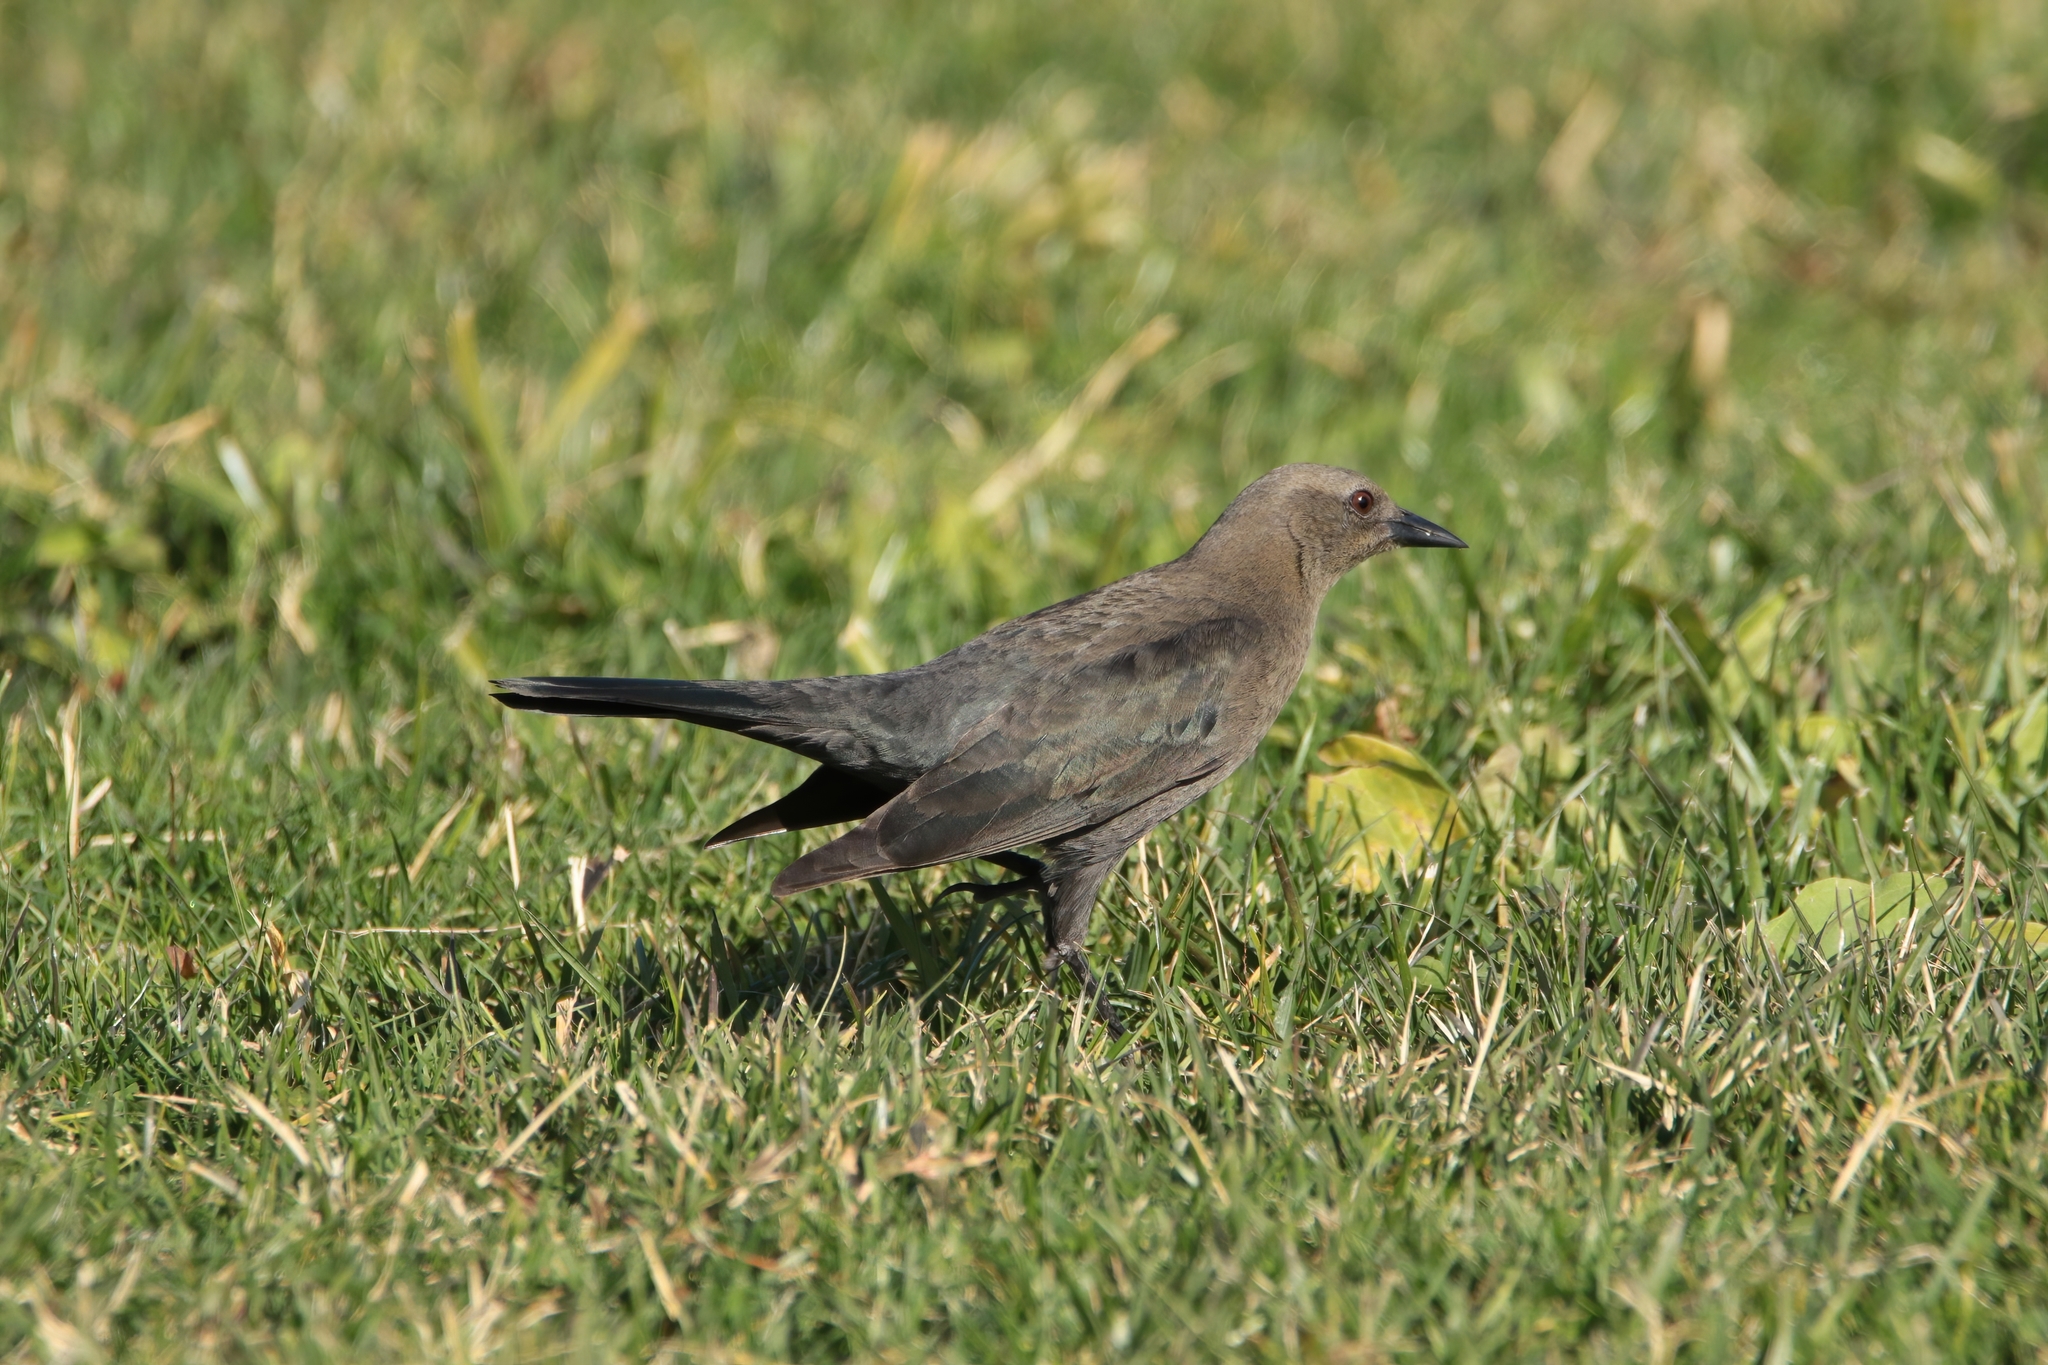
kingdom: Animalia
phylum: Chordata
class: Aves
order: Passeriformes
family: Icteridae
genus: Euphagus
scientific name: Euphagus cyanocephalus
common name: Brewer's blackbird
